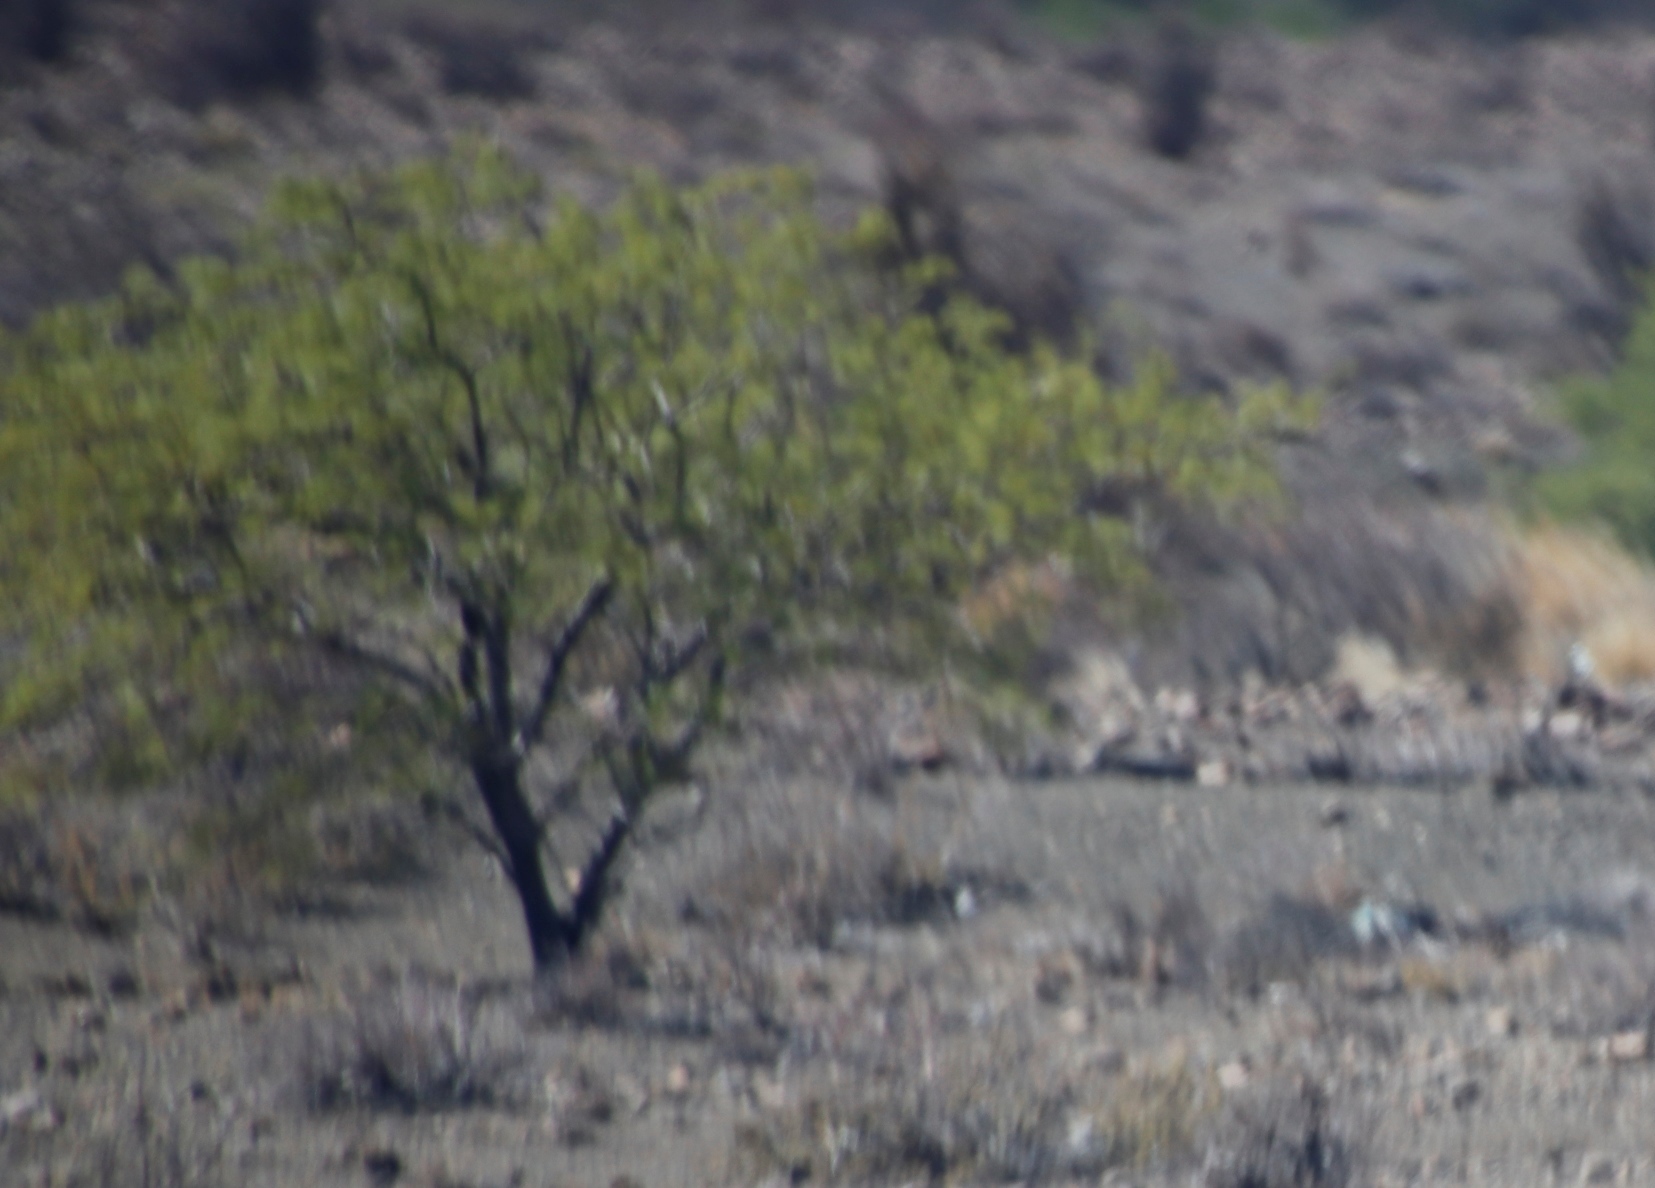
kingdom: Plantae
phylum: Tracheophyta
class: Magnoliopsida
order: Fabales
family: Fabaceae
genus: Vachellia
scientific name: Vachellia karroo
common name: Sweet thorn
